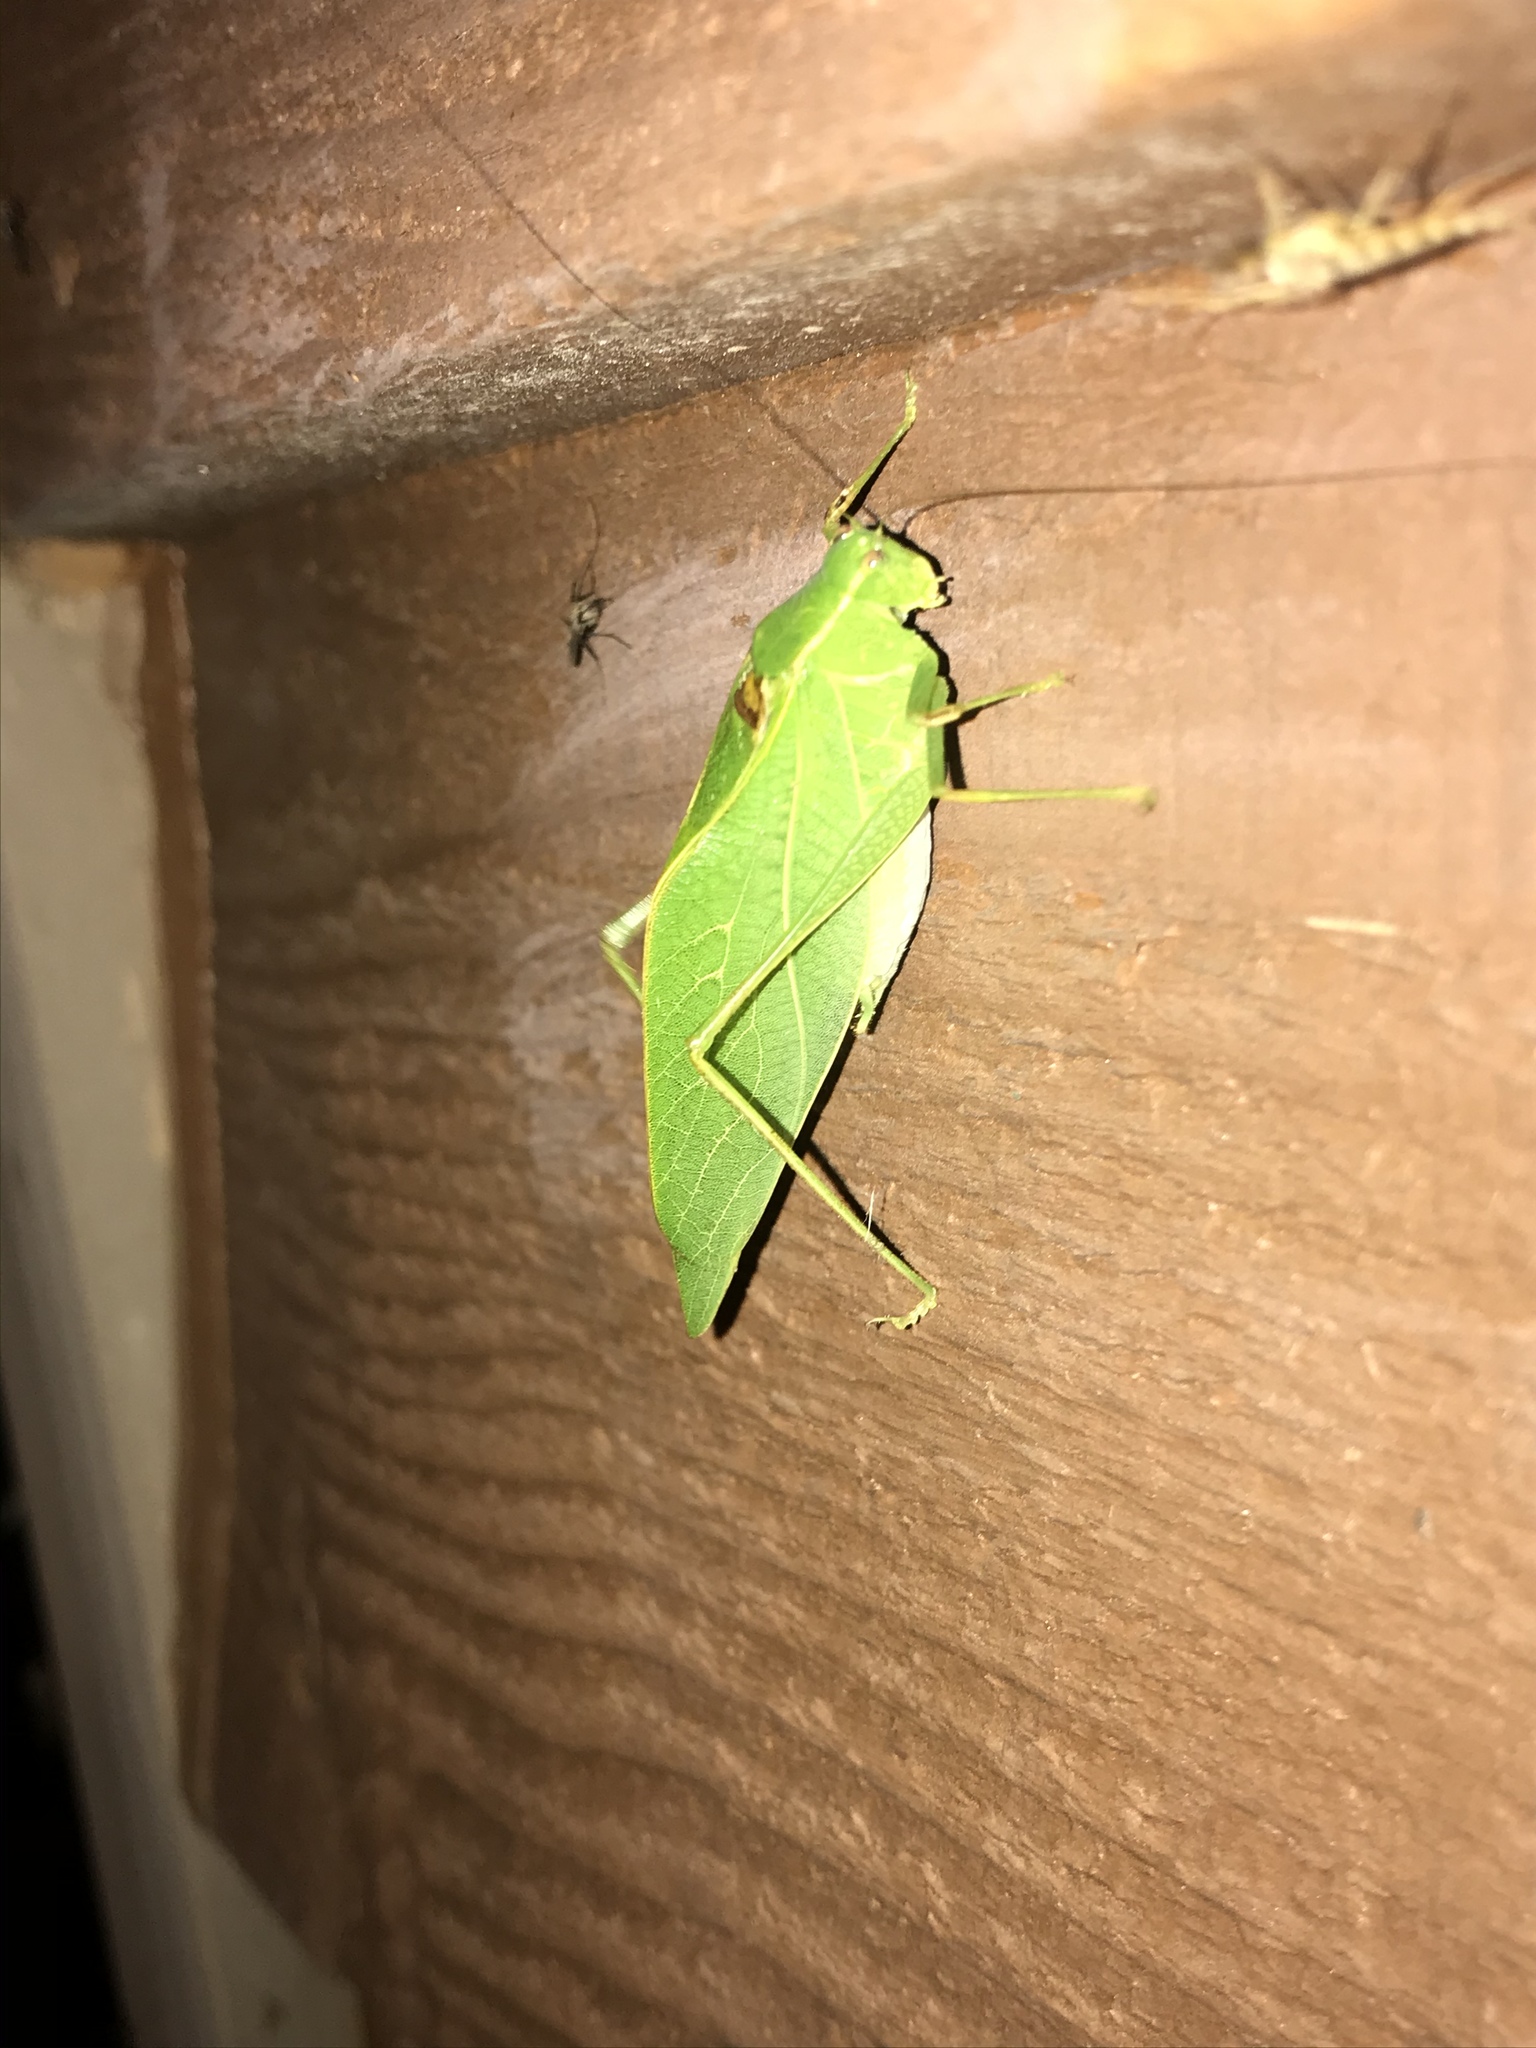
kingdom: Animalia
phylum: Arthropoda
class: Insecta
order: Orthoptera
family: Tettigoniidae
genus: Microcentrum
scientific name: Microcentrum retinerve
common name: Angular-winged katydid
